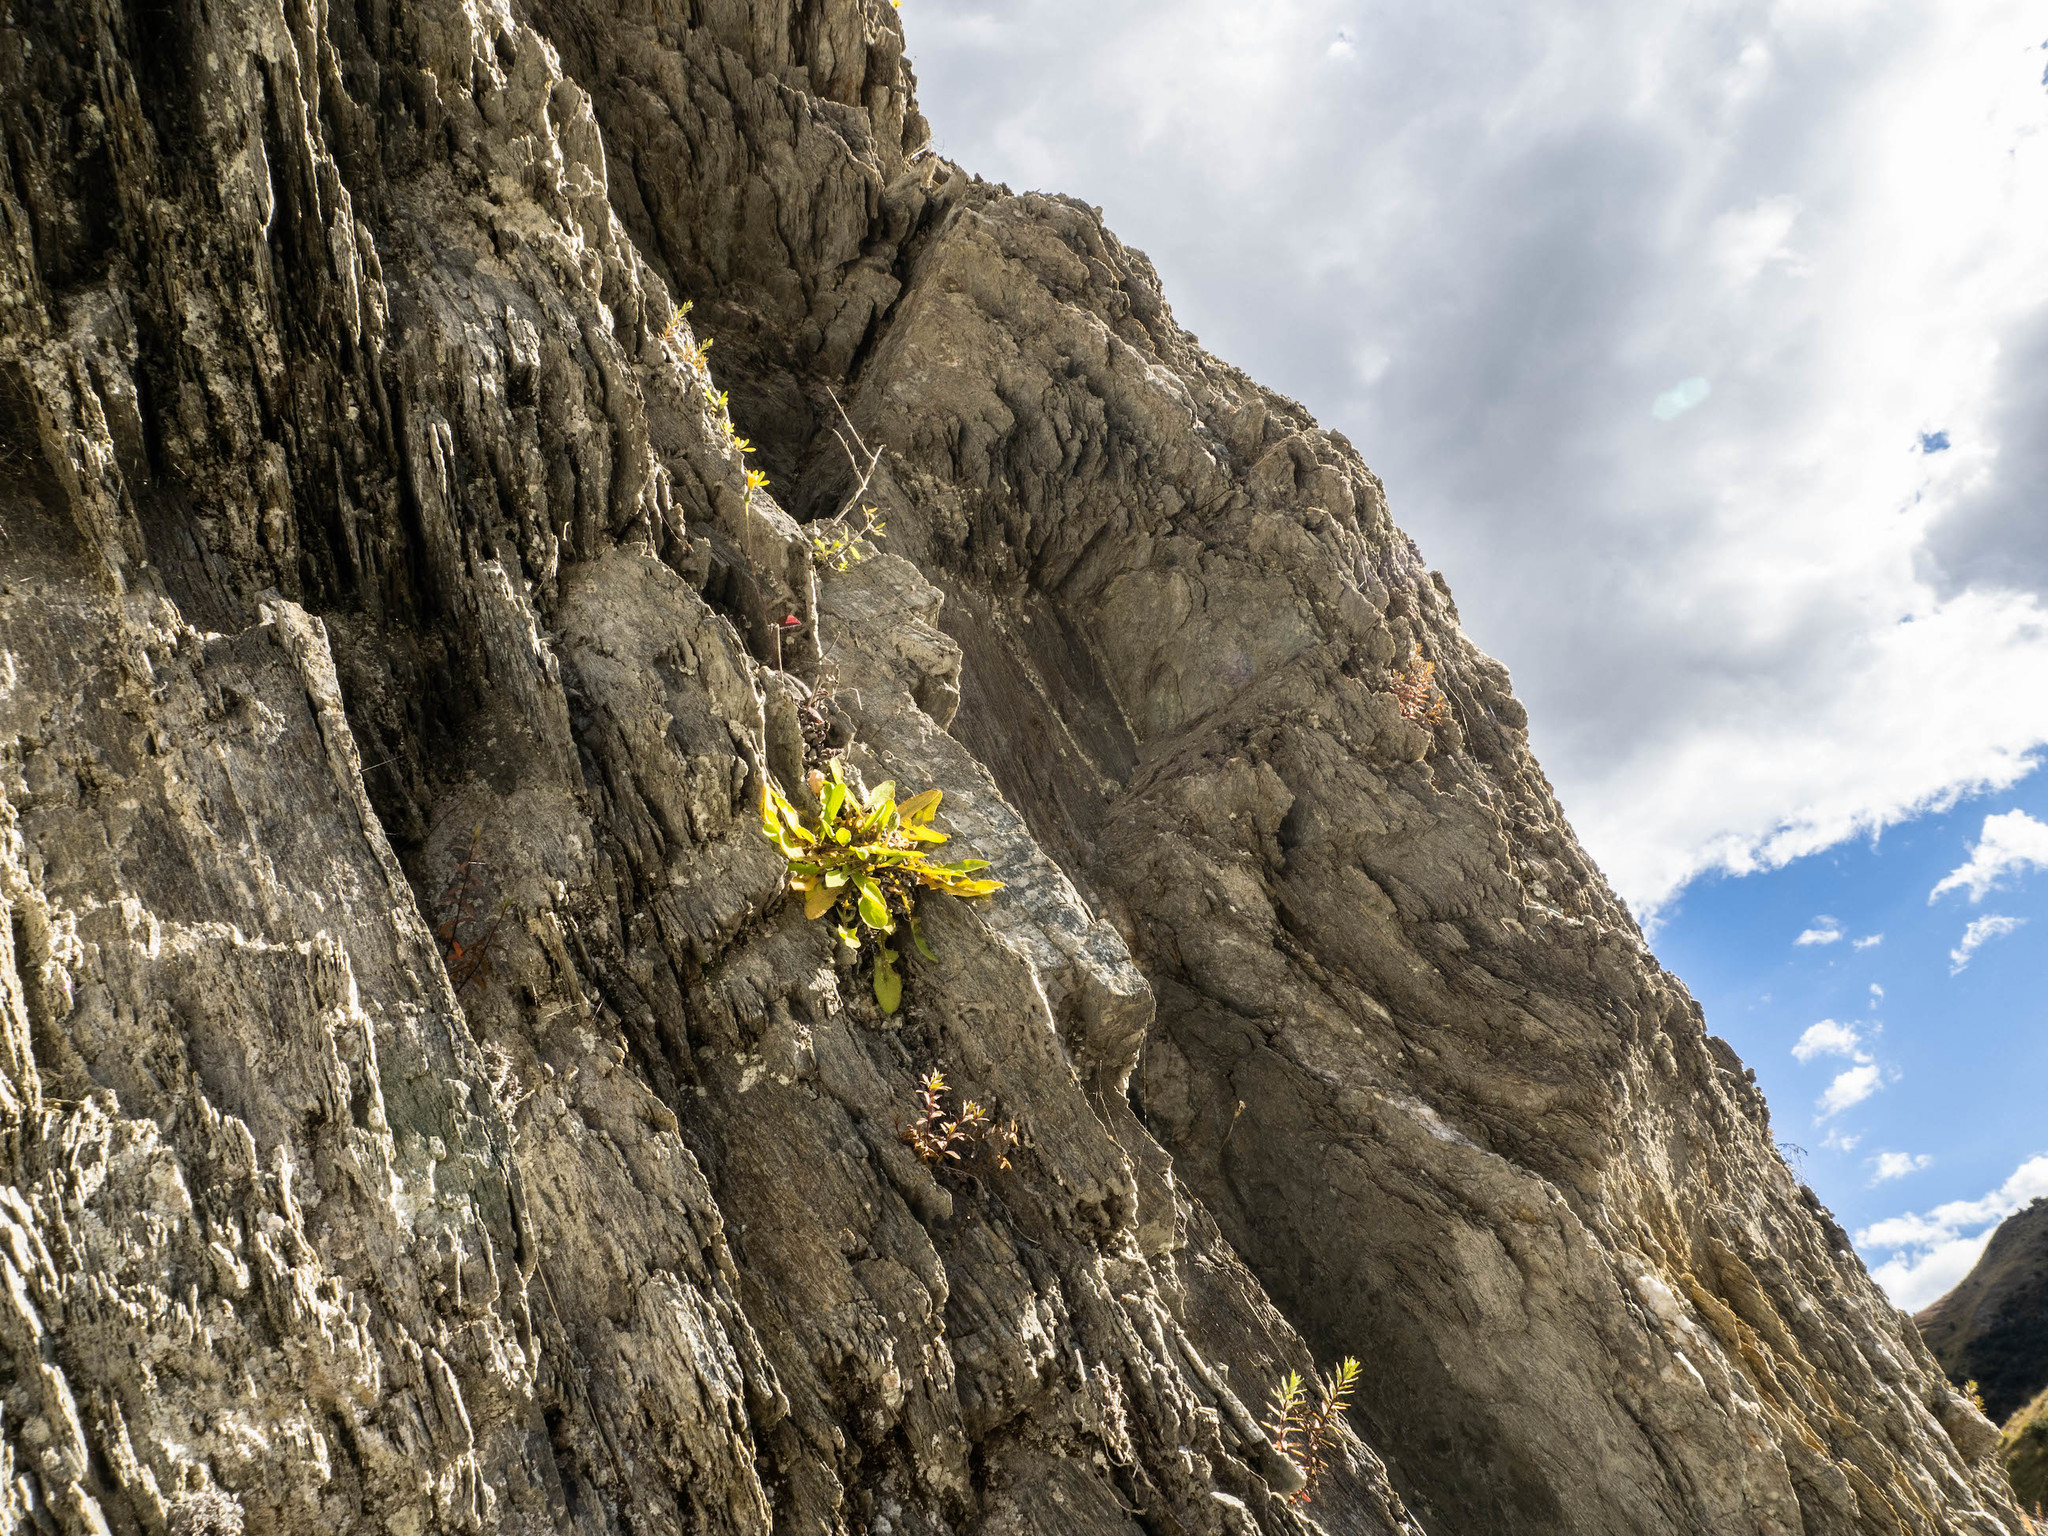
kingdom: Plantae
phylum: Tracheophyta
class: Magnoliopsida
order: Asterales
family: Asteraceae
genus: Sonchus
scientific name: Sonchus novae-zelandiae
